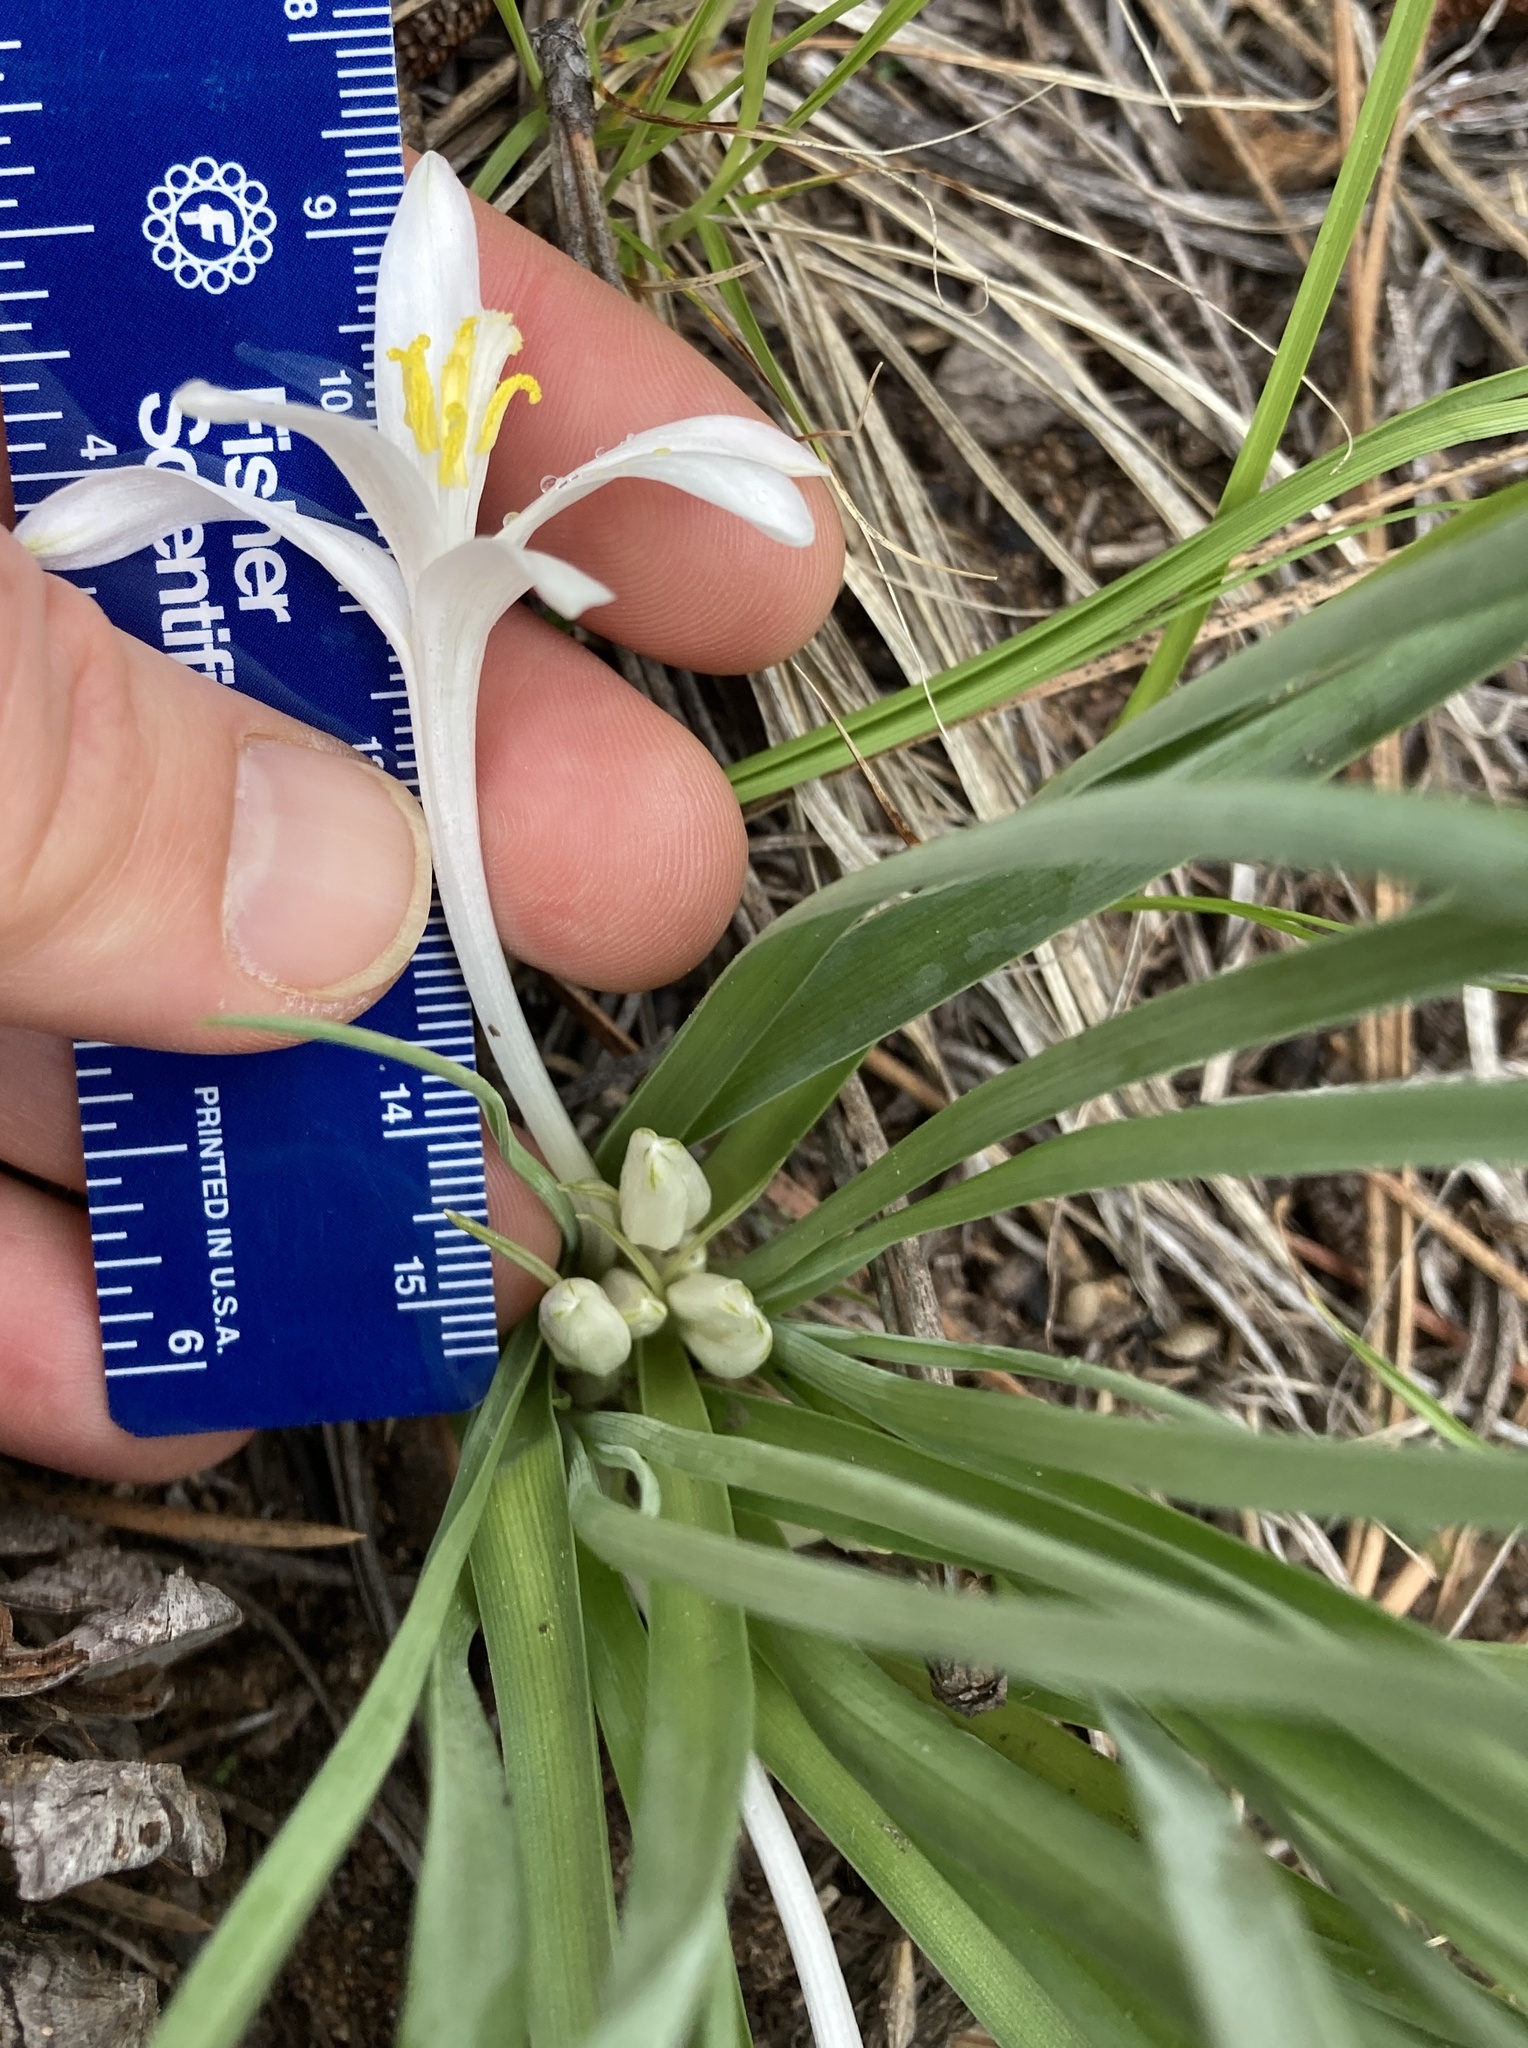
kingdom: Plantae
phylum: Tracheophyta
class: Liliopsida
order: Asparagales
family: Asparagaceae
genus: Leucocrinum
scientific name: Leucocrinum montanum
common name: Mountain-lily
